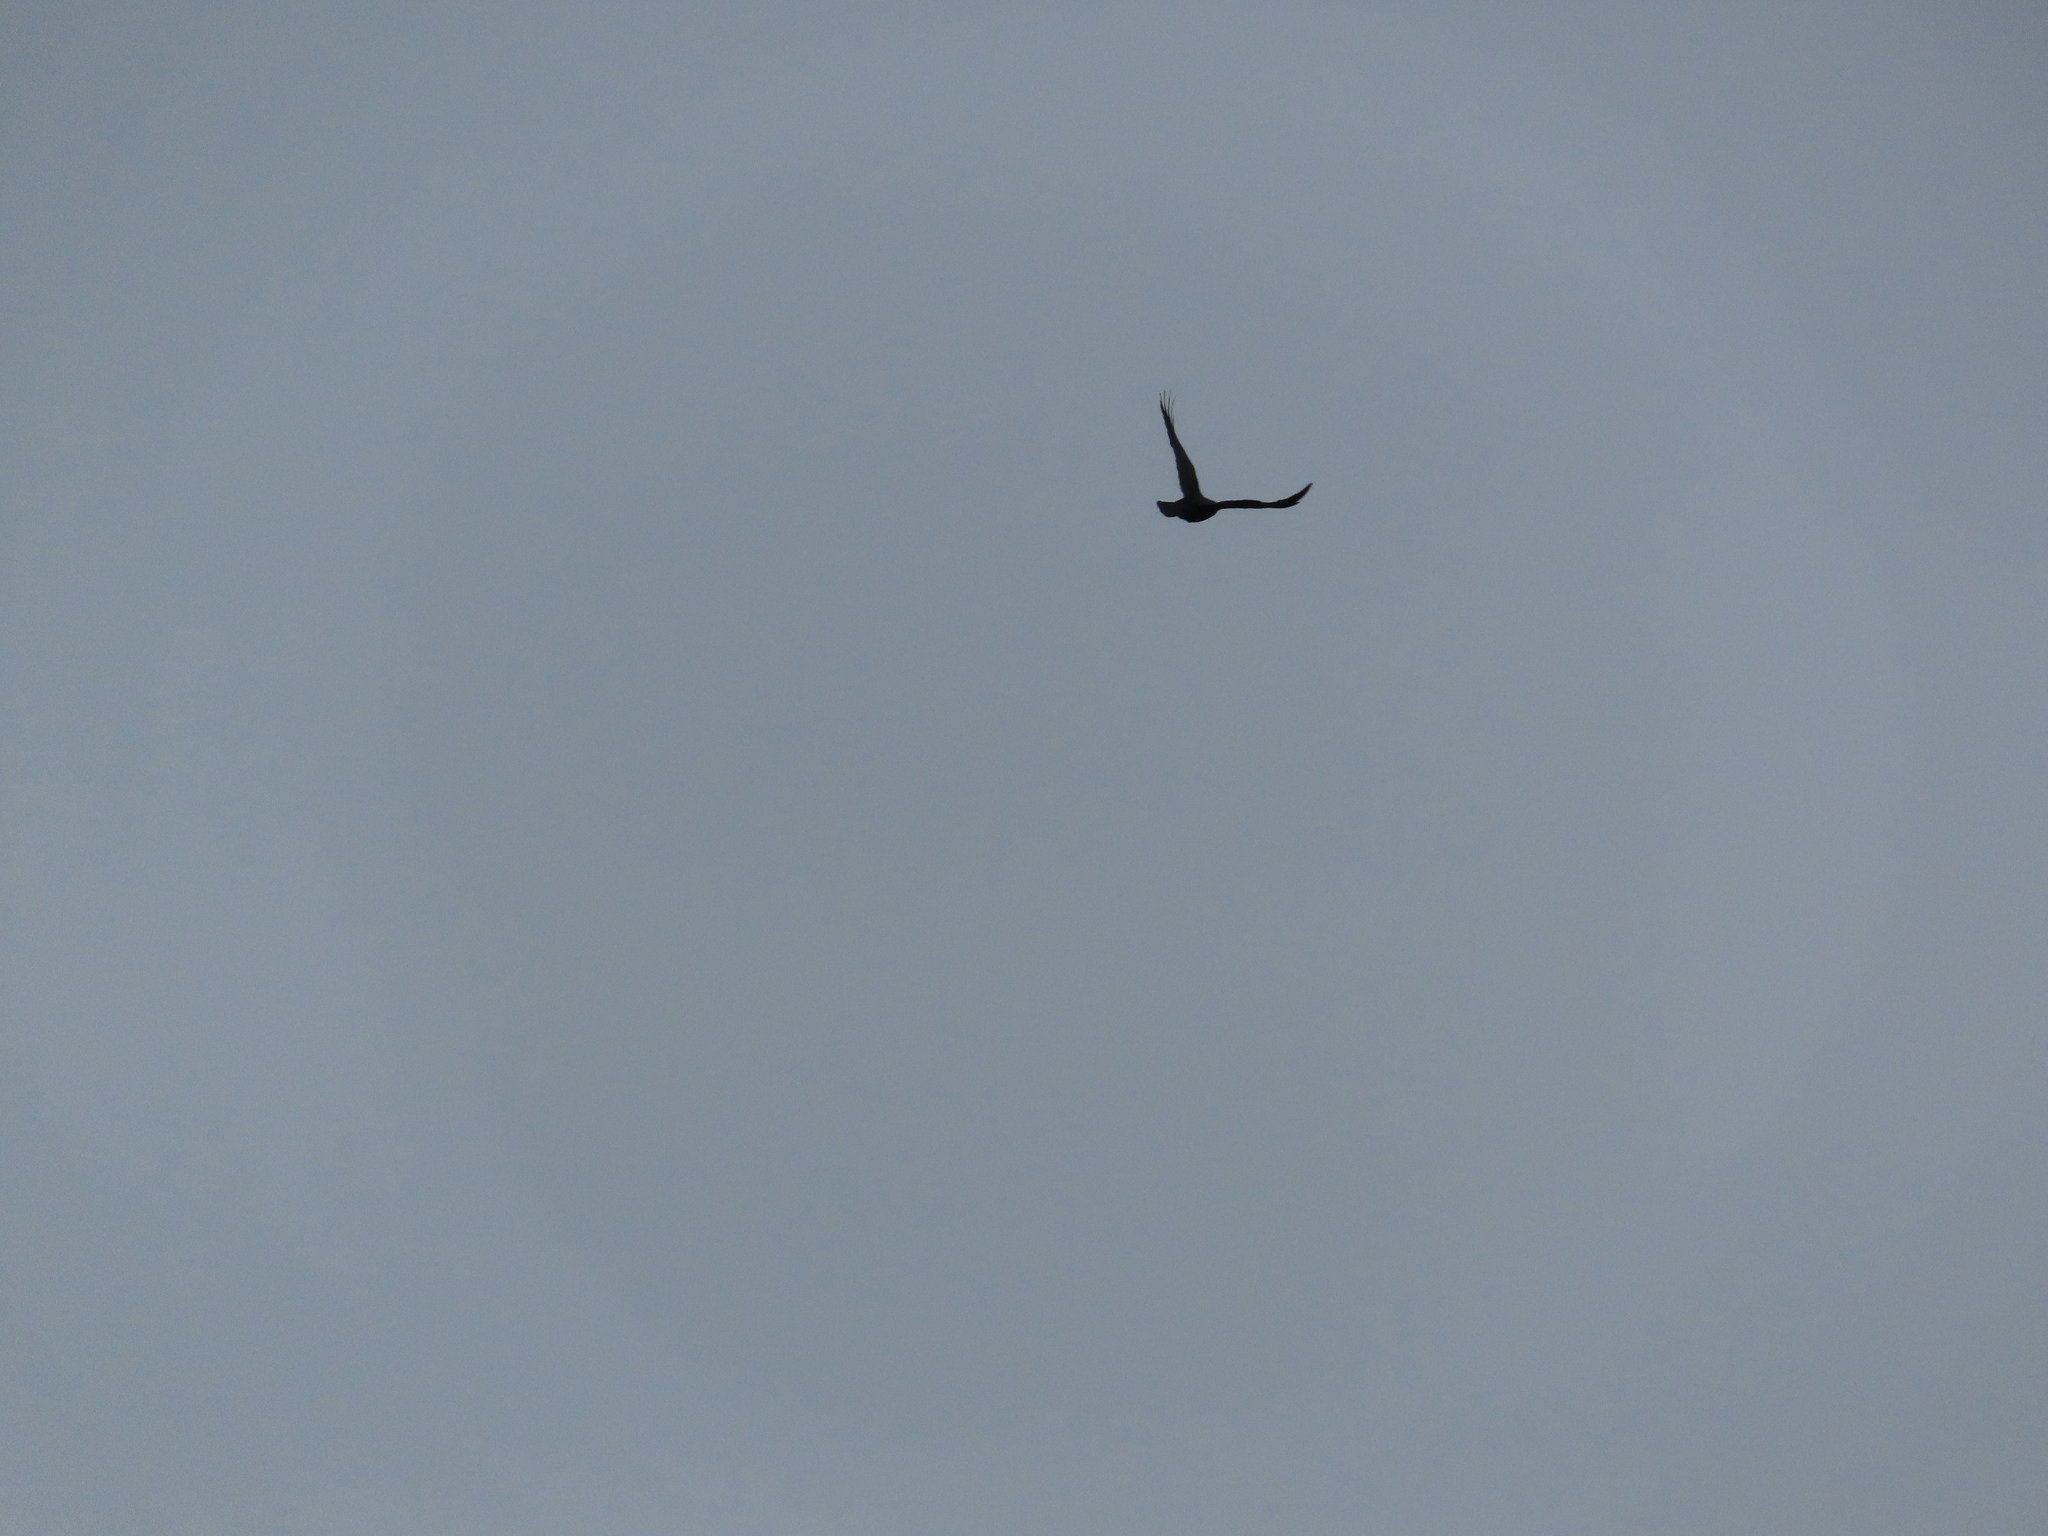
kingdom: Animalia
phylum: Chordata
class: Aves
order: Passeriformes
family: Corvidae
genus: Corvus
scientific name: Corvus brachyrhynchos
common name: American crow
